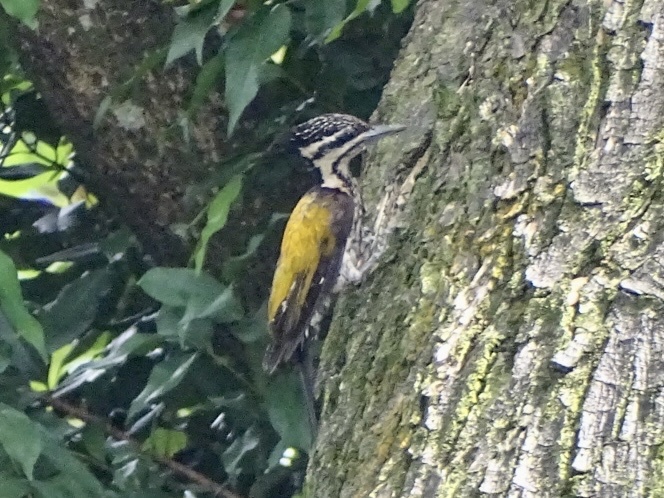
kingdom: Animalia
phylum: Chordata
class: Aves
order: Piciformes
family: Picidae
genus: Dinopium
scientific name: Dinopium javanense
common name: Common flameback
